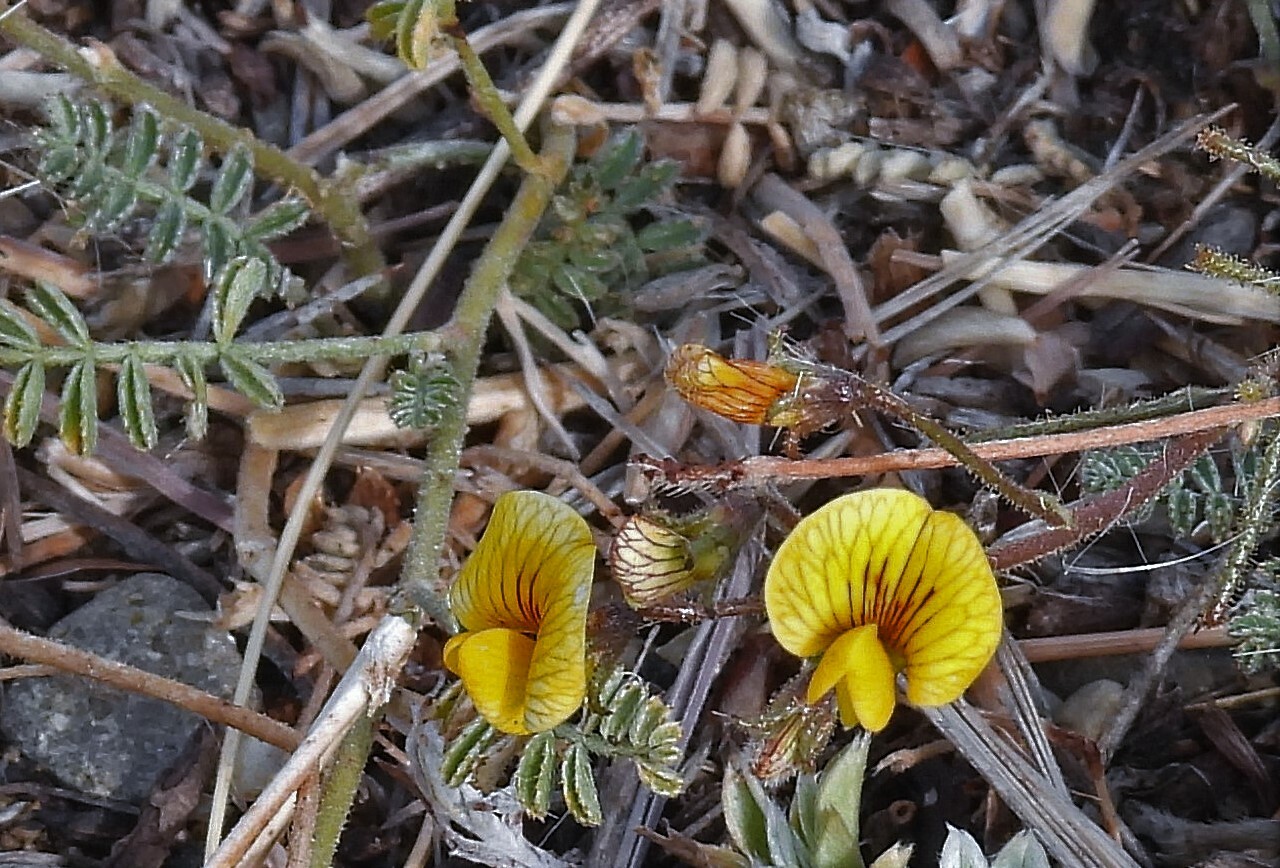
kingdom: Plantae
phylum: Tracheophyta
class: Magnoliopsida
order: Fabales
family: Fabaceae
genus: Adesmia
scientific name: Adesmia corymbosa
